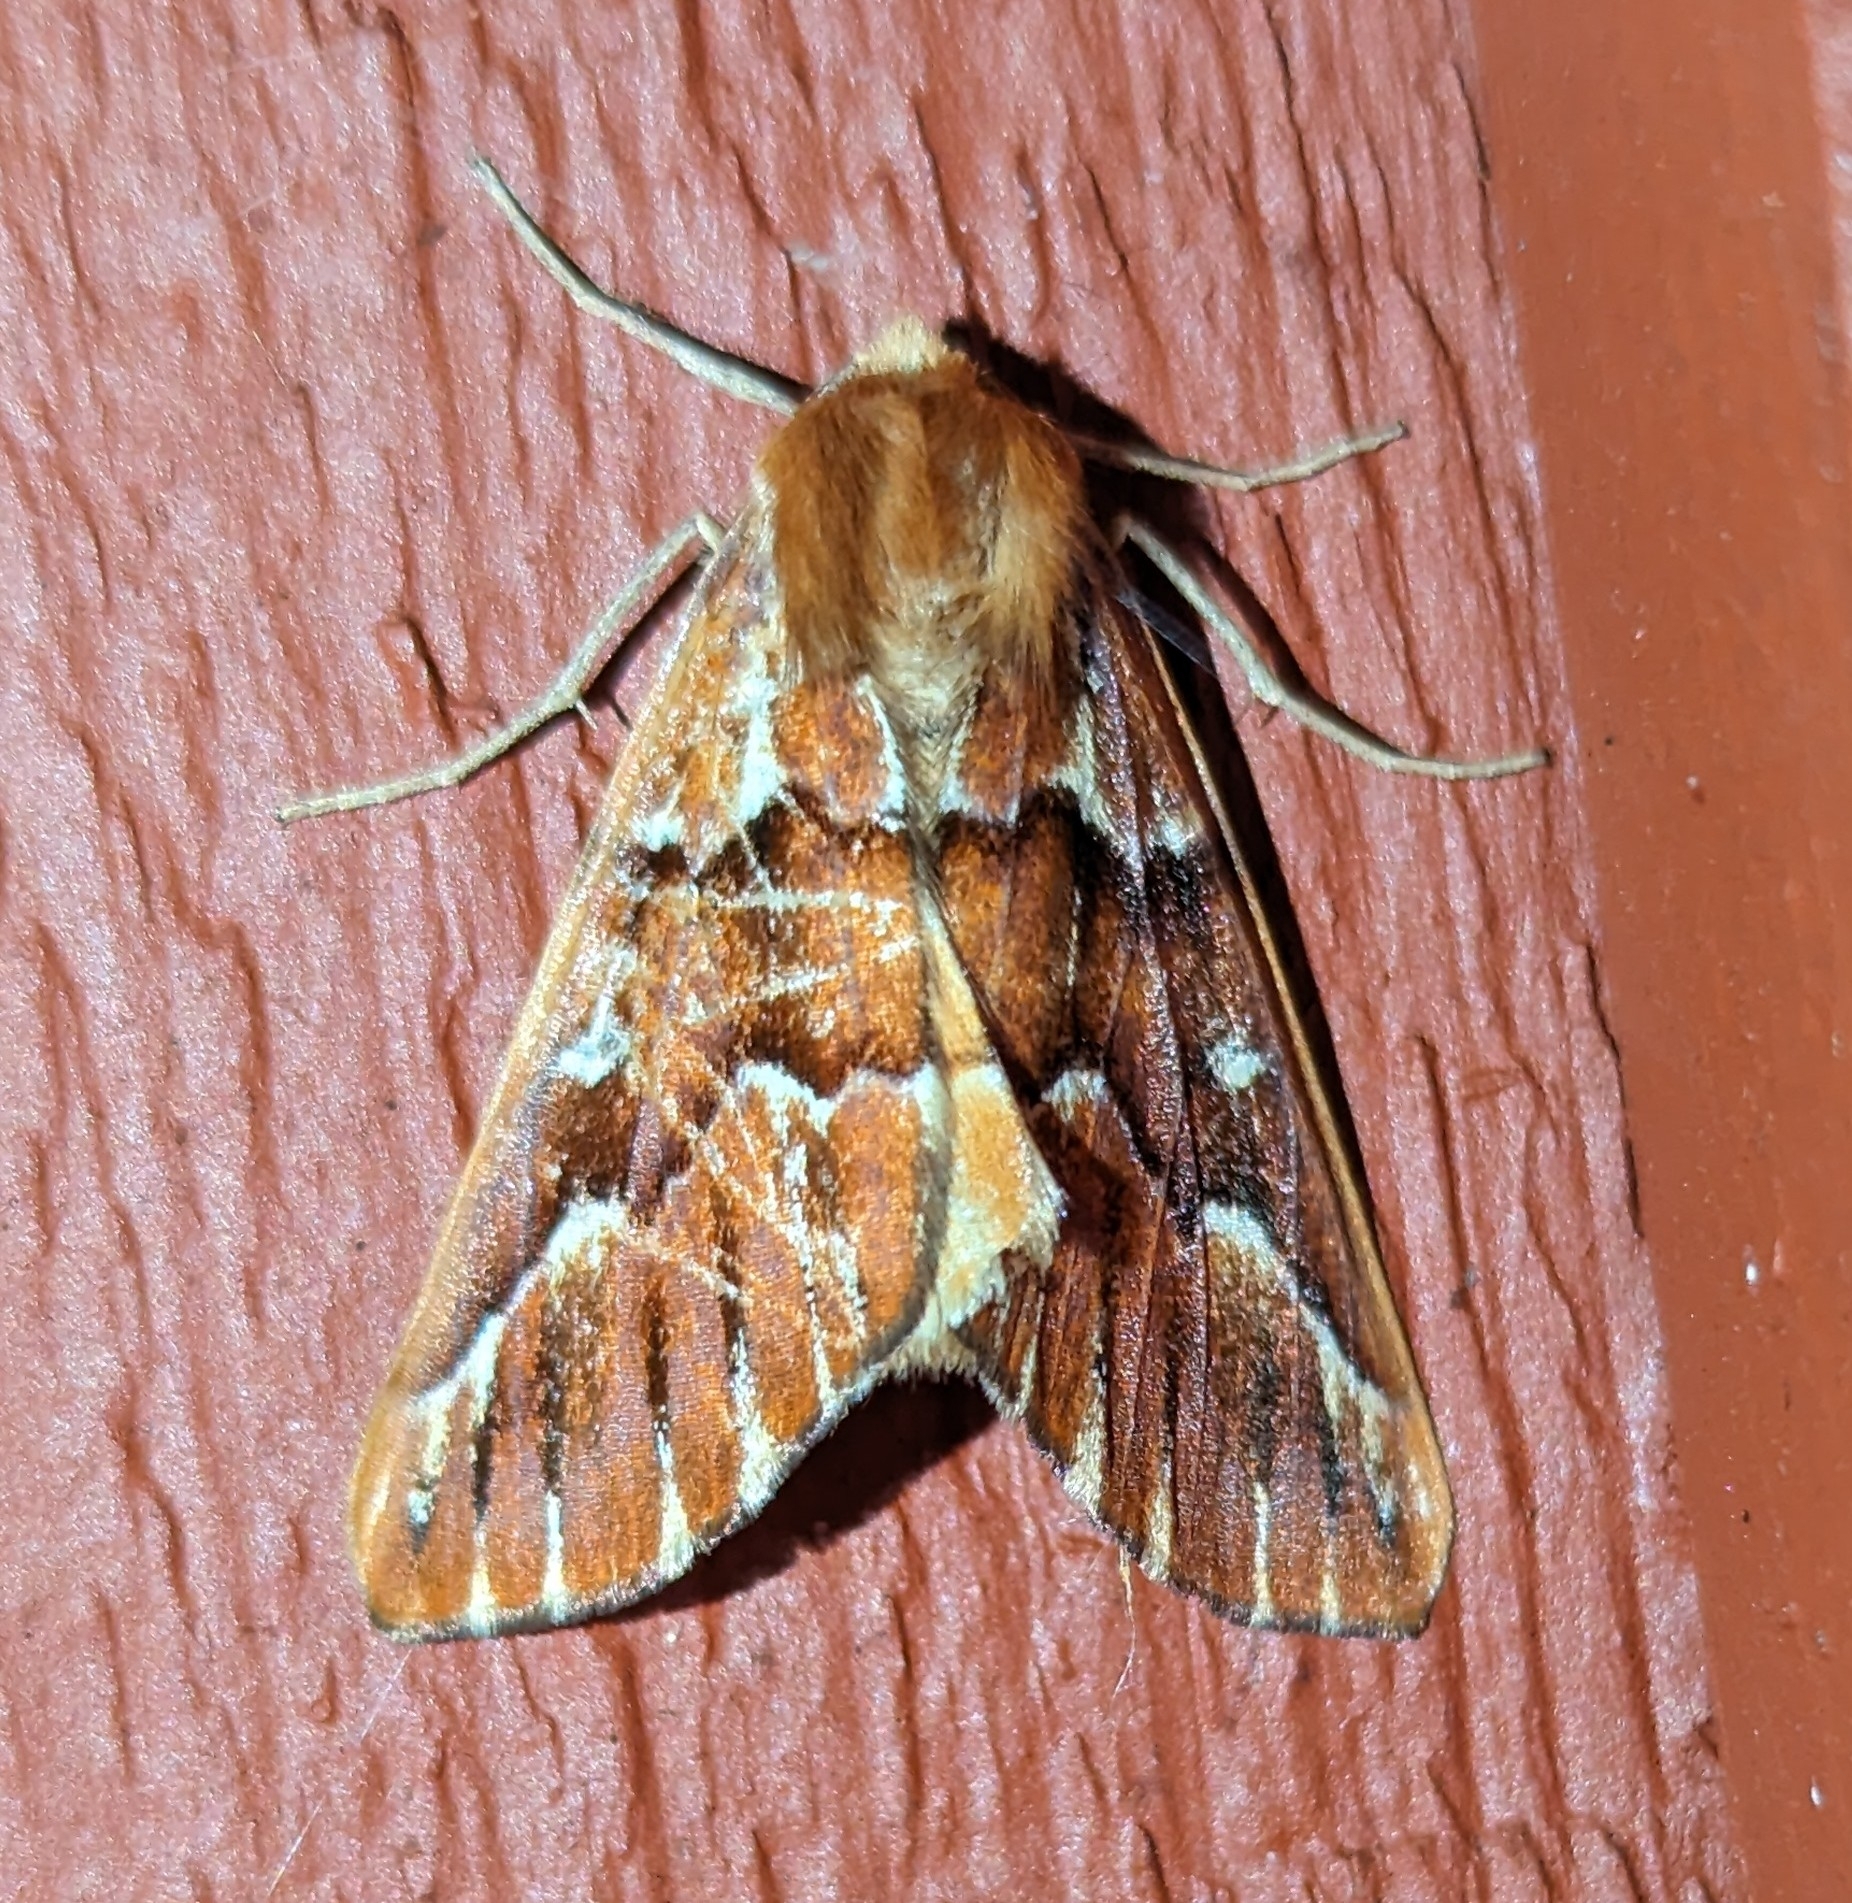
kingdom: Animalia
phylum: Arthropoda
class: Insecta
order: Lepidoptera
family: Geometridae
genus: Caripeta
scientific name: Caripeta aequaliaria
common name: Red girdle moth
